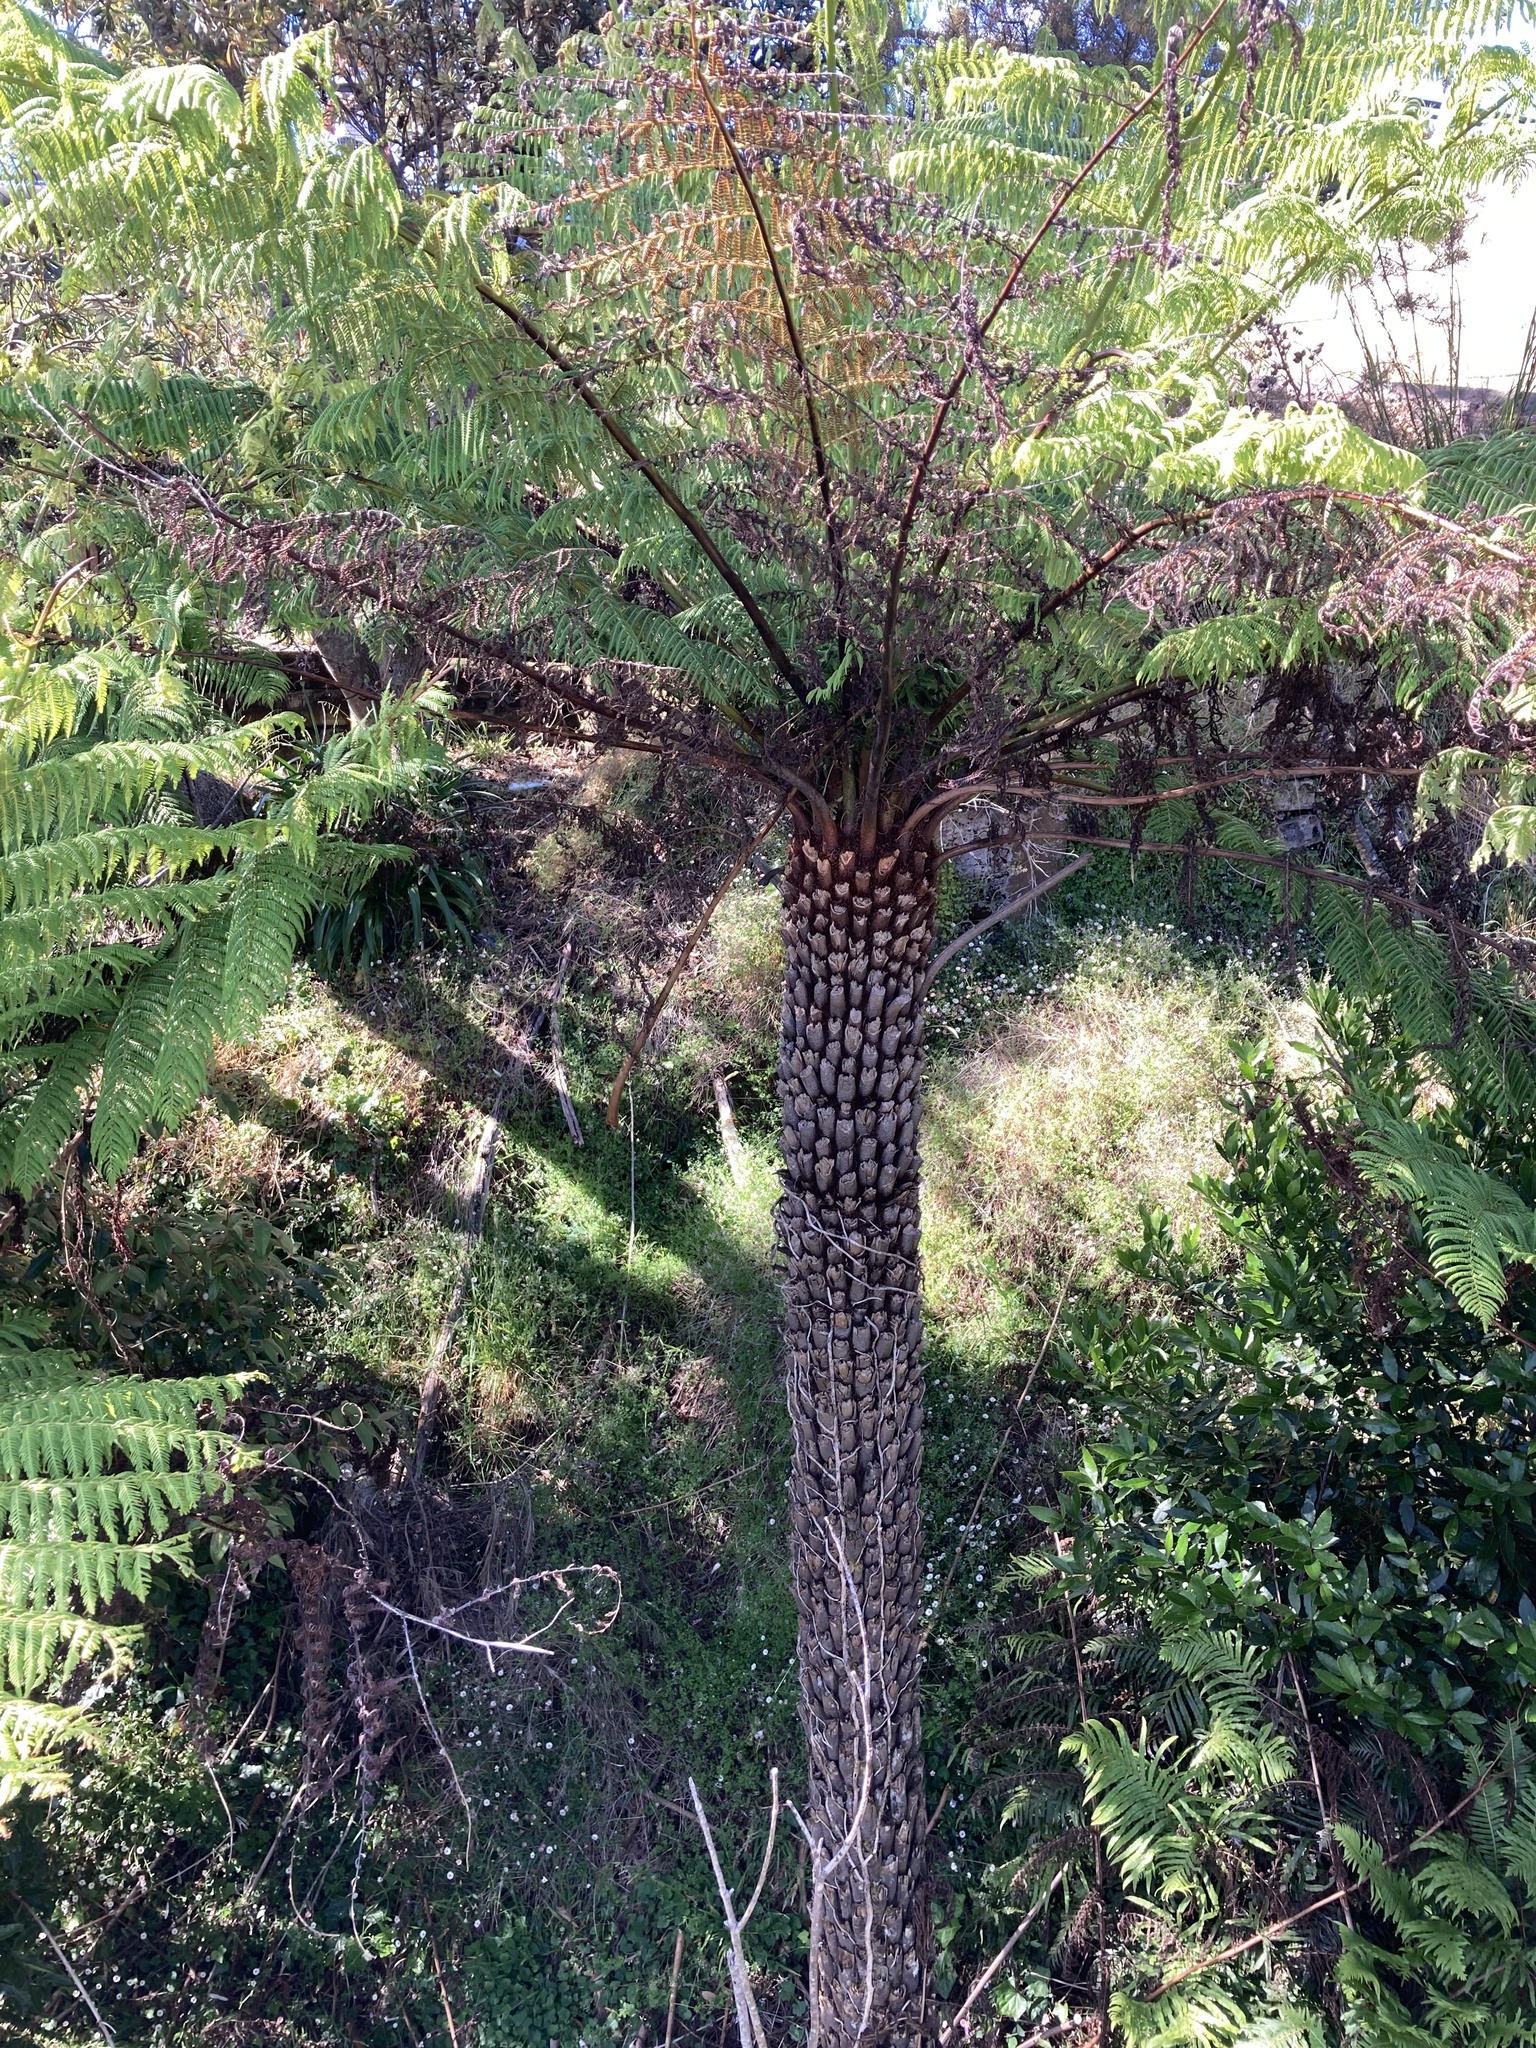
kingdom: Plantae
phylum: Tracheophyta
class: Polypodiopsida
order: Cyatheales
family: Cyatheaceae
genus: Alsophila
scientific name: Alsophila australis
